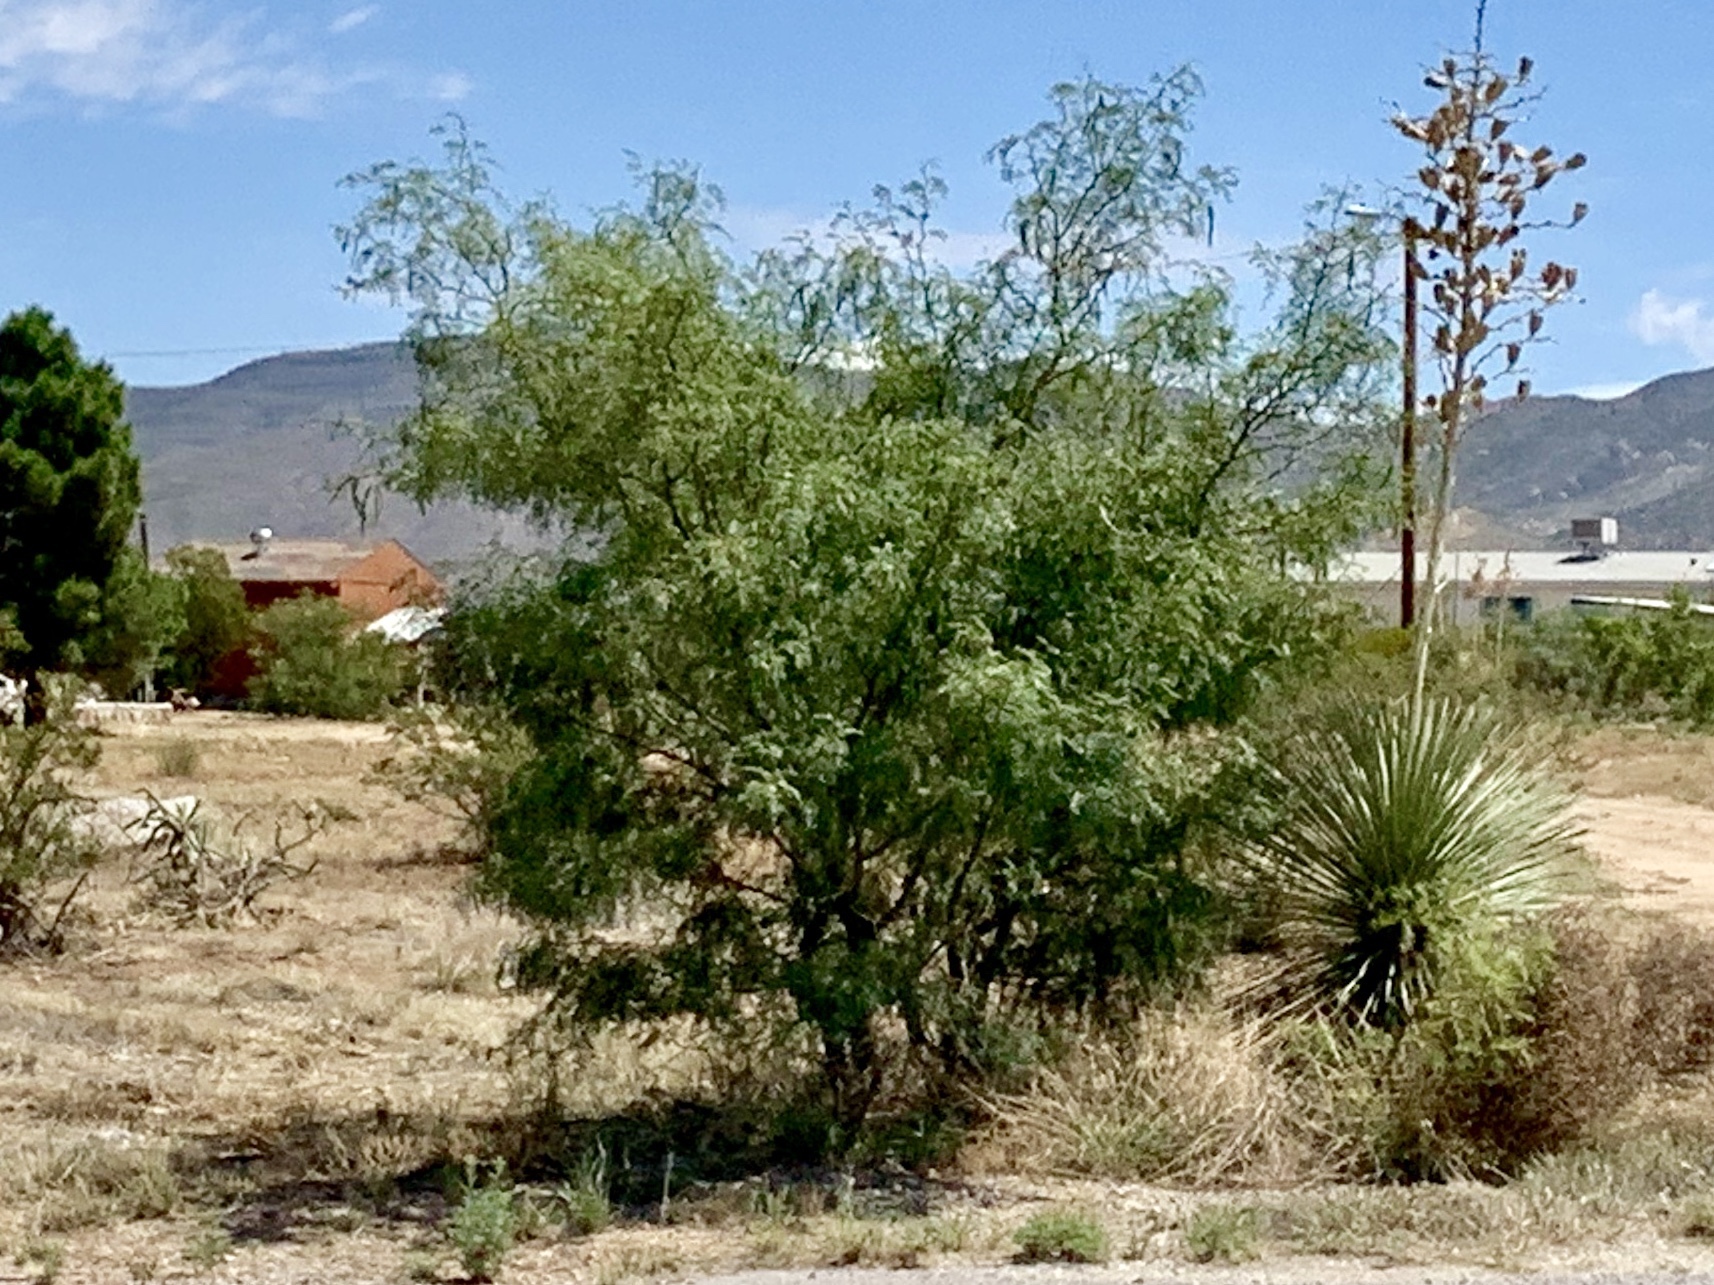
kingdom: Plantae
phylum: Tracheophyta
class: Magnoliopsida
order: Fabales
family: Fabaceae
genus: Prosopis
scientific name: Prosopis glandulosa
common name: Honey mesquite
